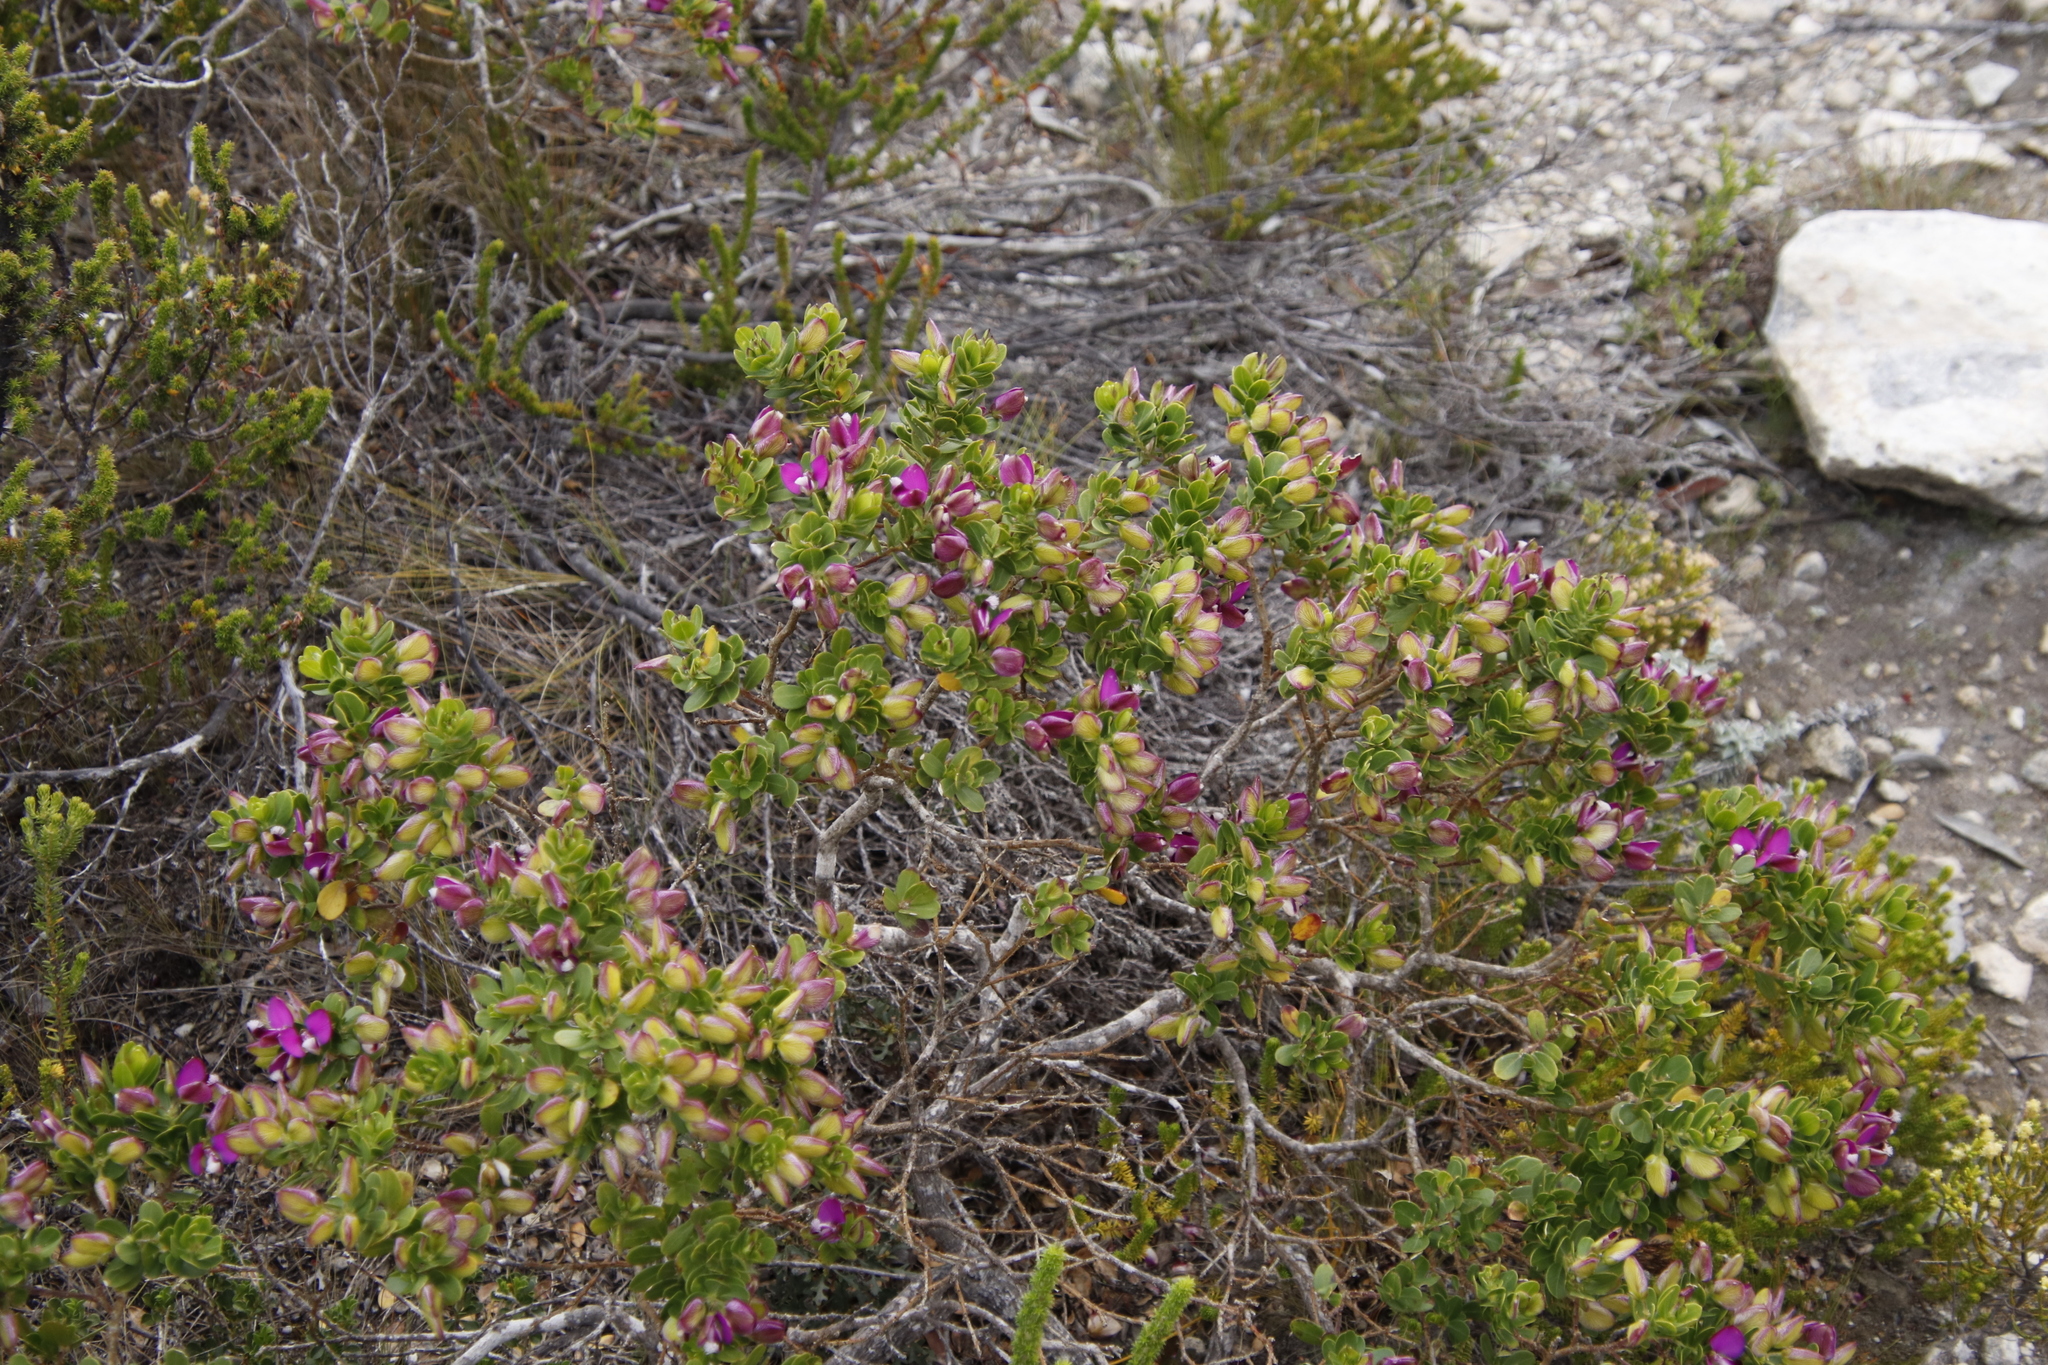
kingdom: Plantae
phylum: Tracheophyta
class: Magnoliopsida
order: Fabales
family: Polygalaceae
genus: Polygala
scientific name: Polygala myrtifolia
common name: Myrtle-leaf milkwort
